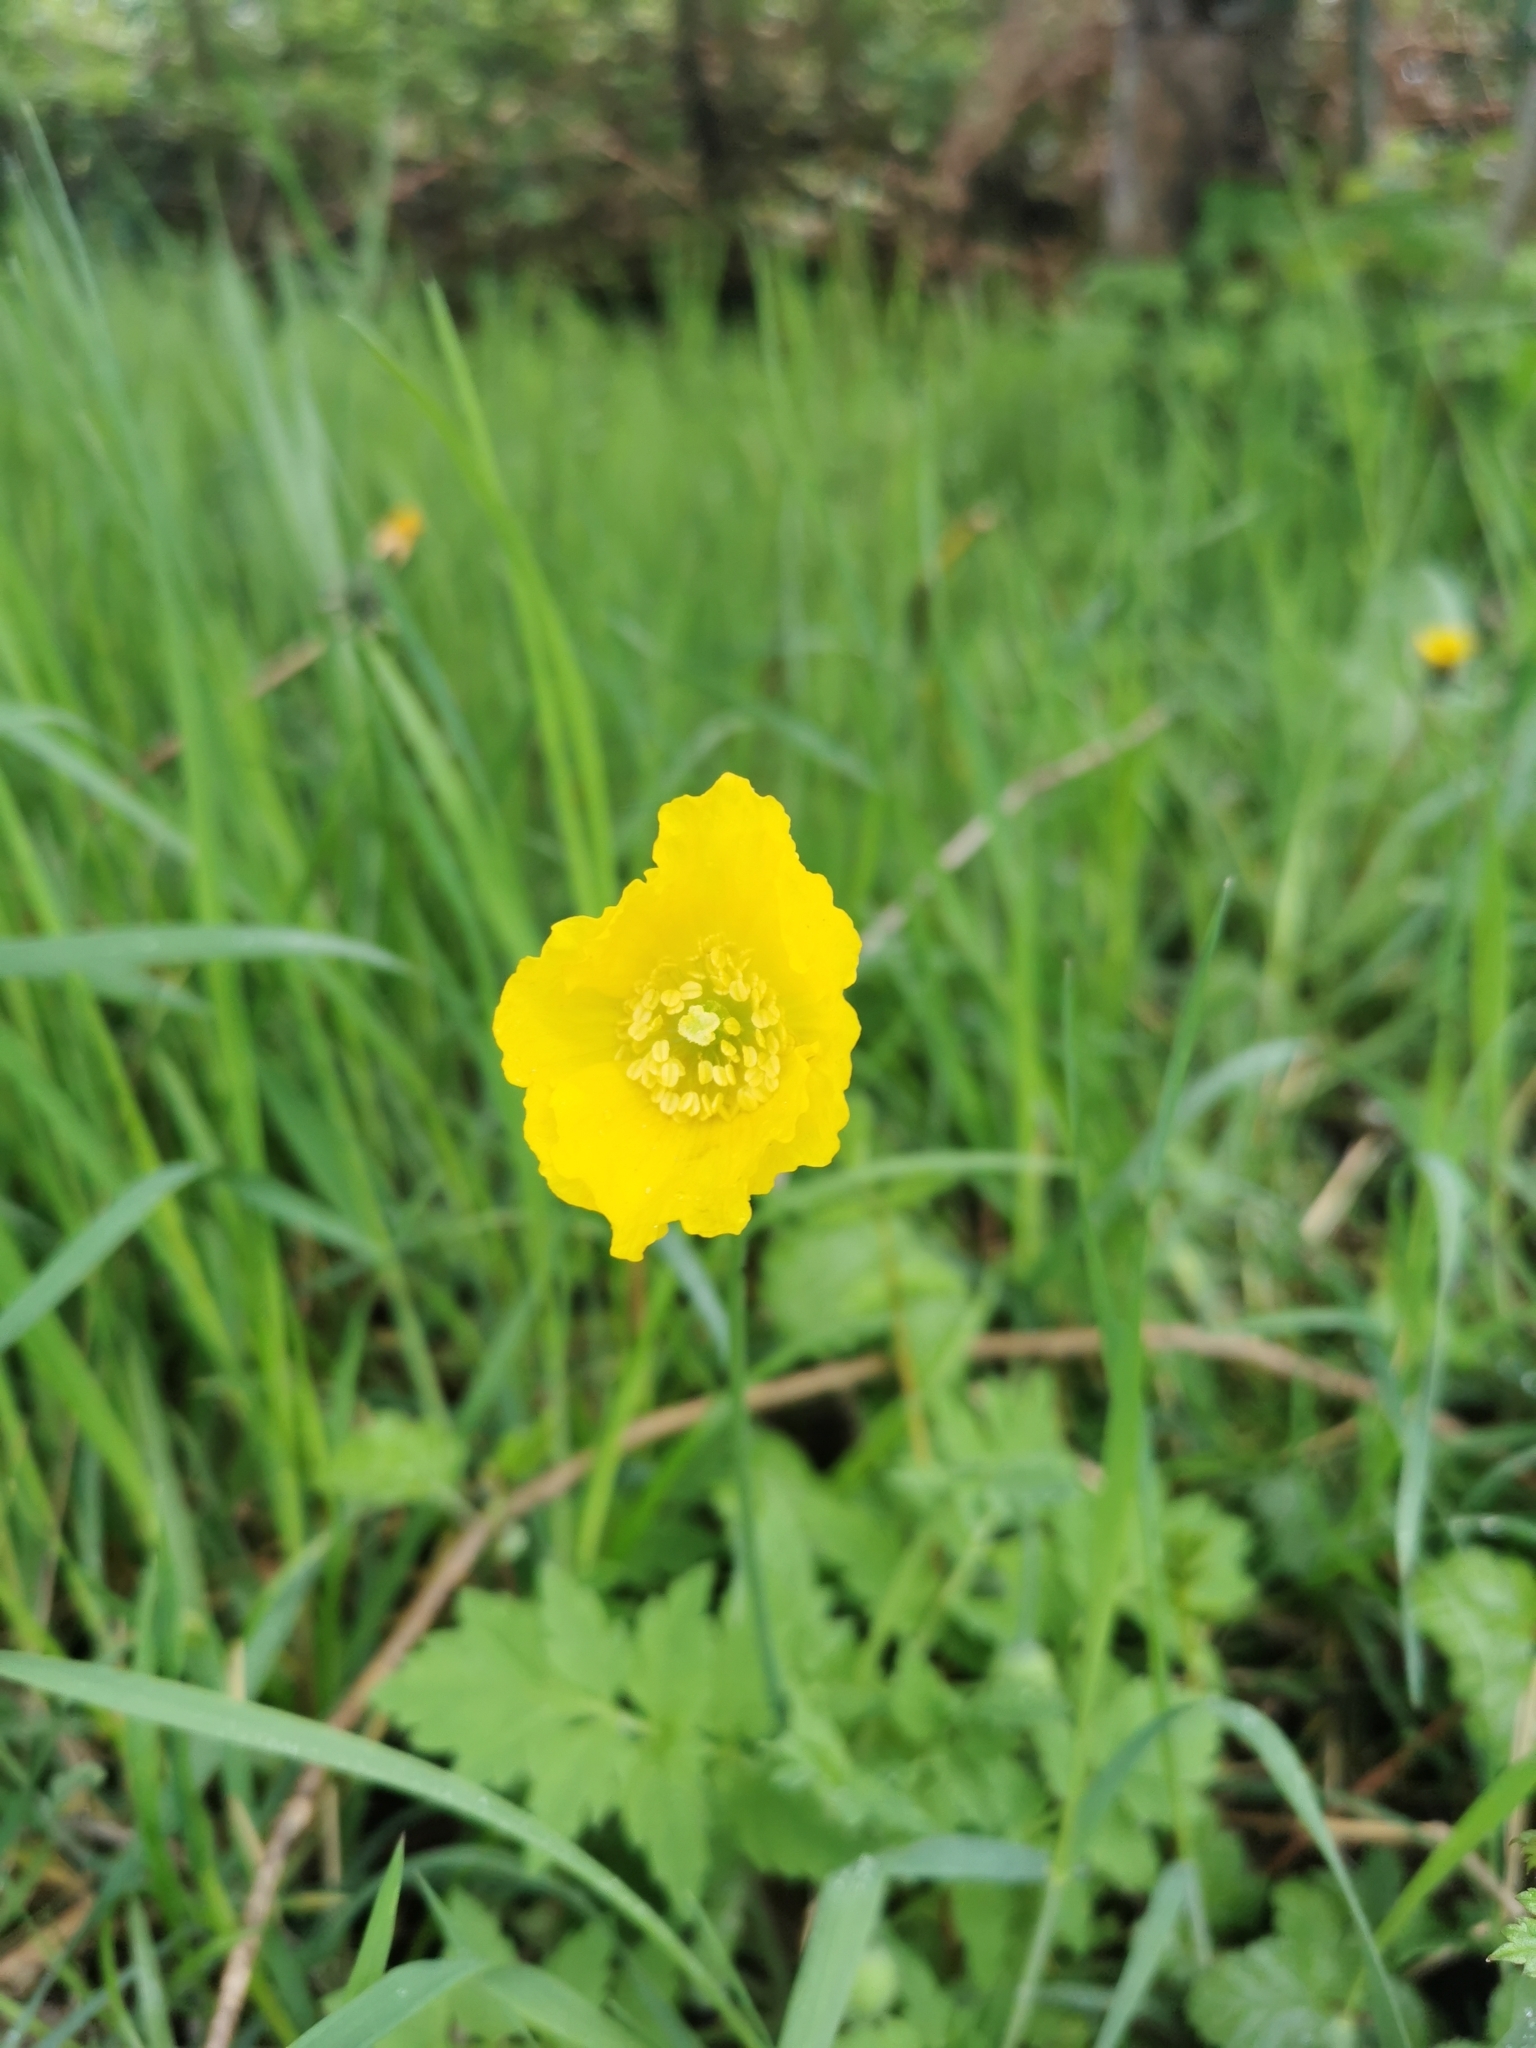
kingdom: Plantae
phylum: Tracheophyta
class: Magnoliopsida
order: Ranunculales
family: Papaveraceae
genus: Papaver
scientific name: Papaver cambricum
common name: Poppy
